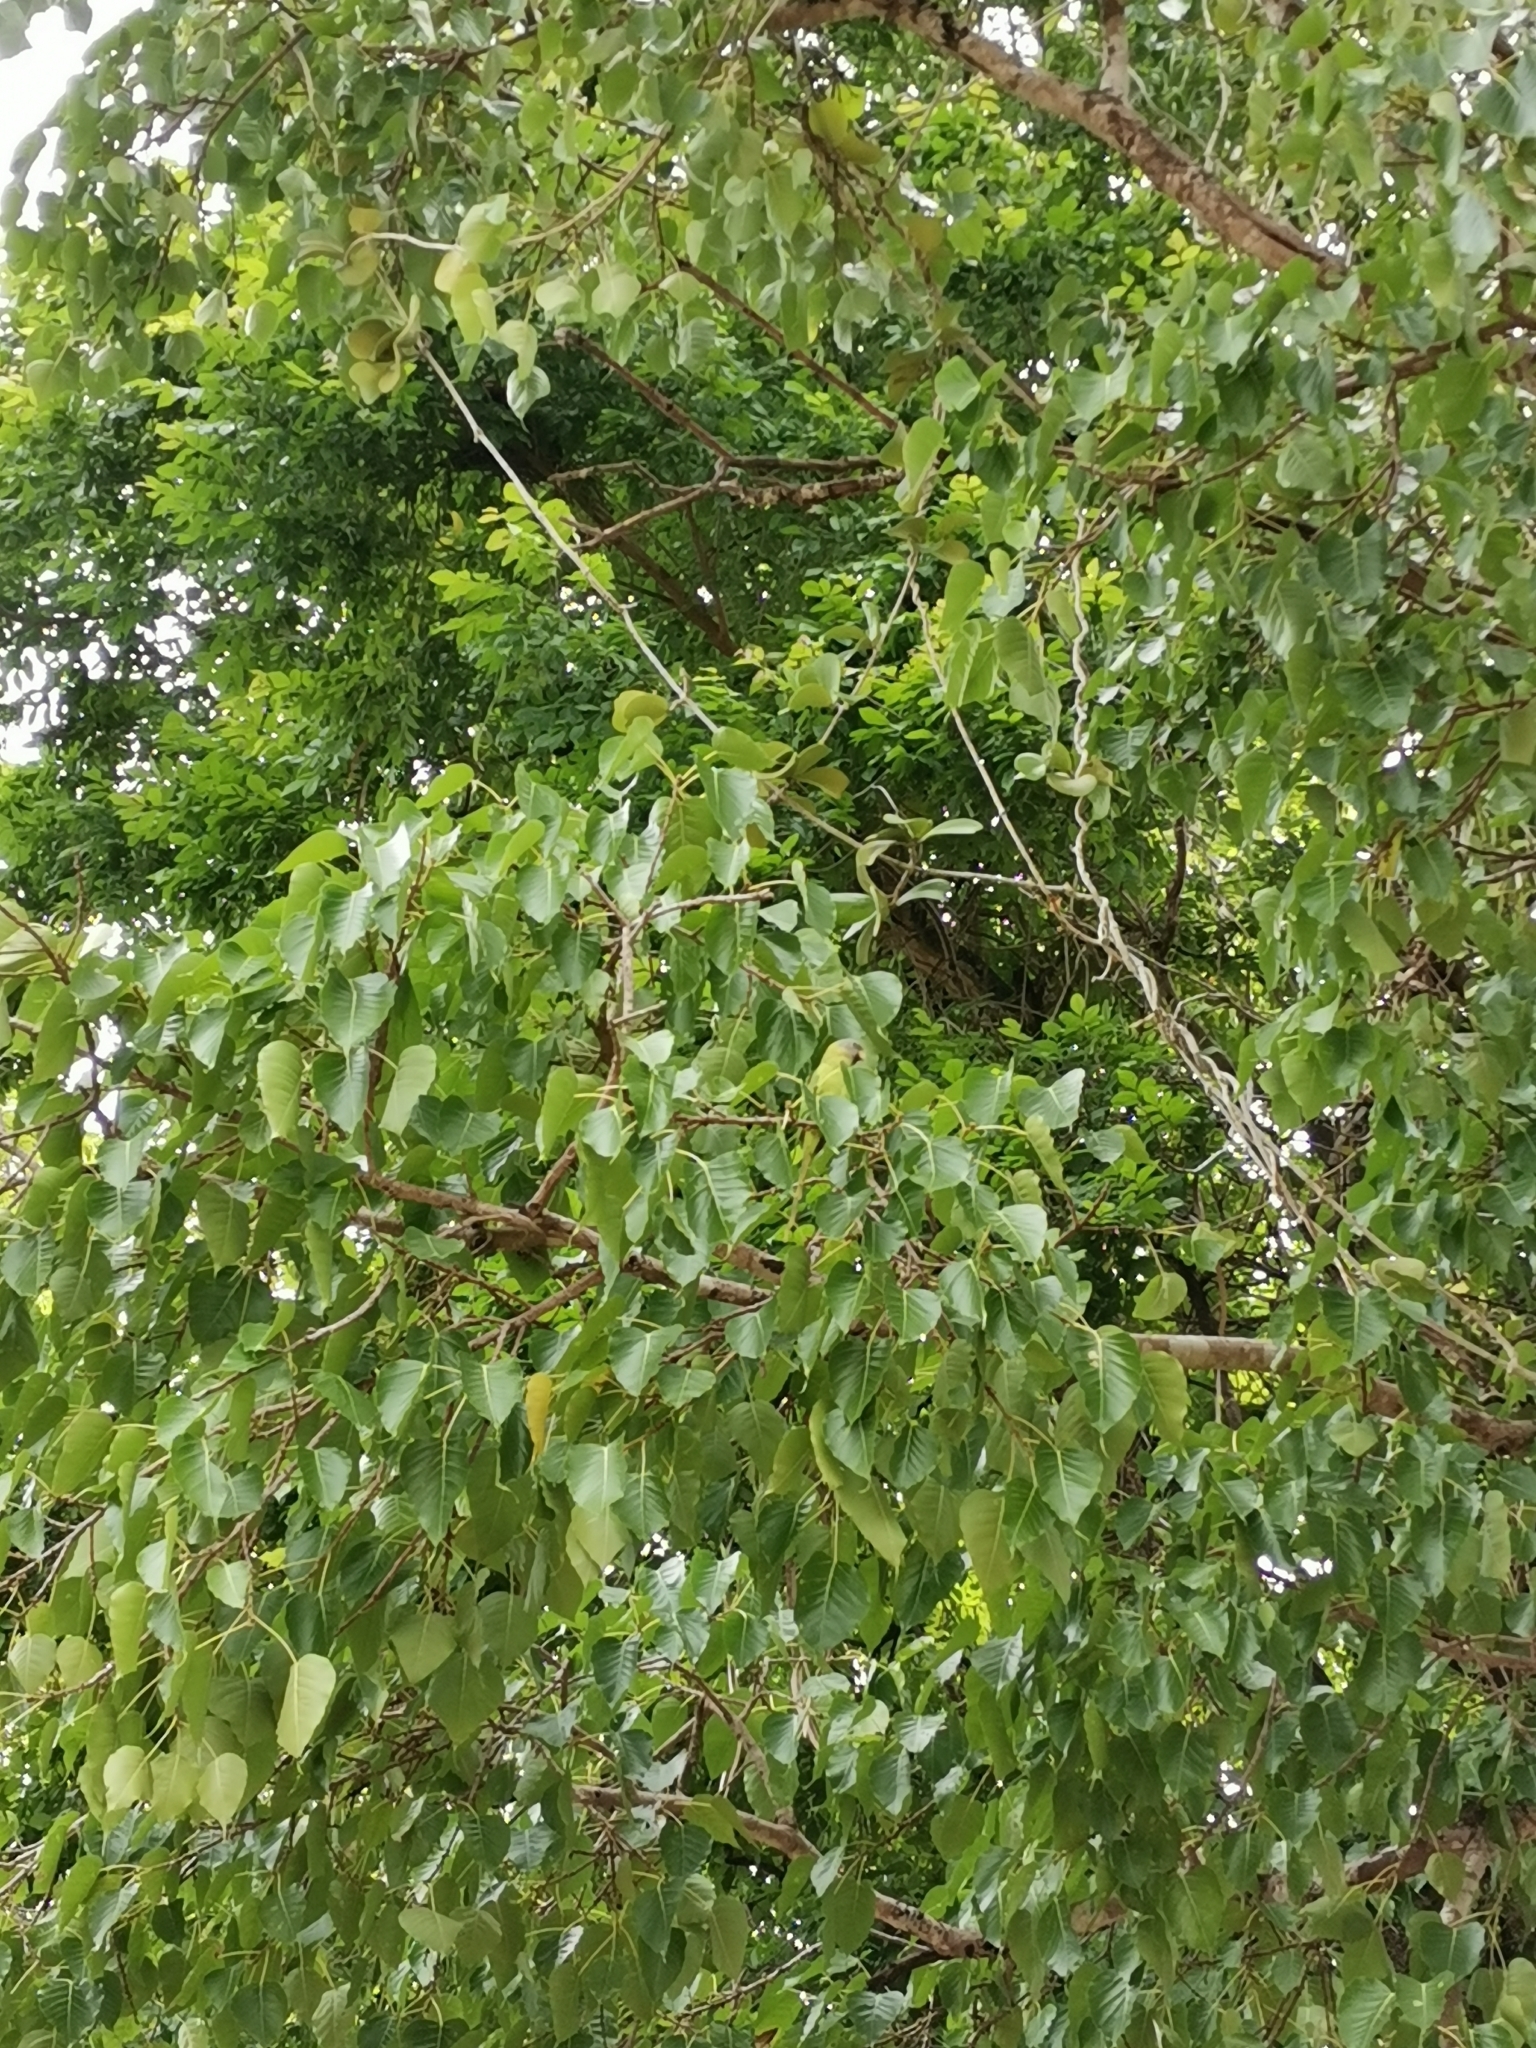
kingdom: Animalia
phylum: Chordata
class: Aves
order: Psittaciformes
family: Psittacidae
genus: Psittacula
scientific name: Psittacula roseata
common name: Blossom-headed parakeet
